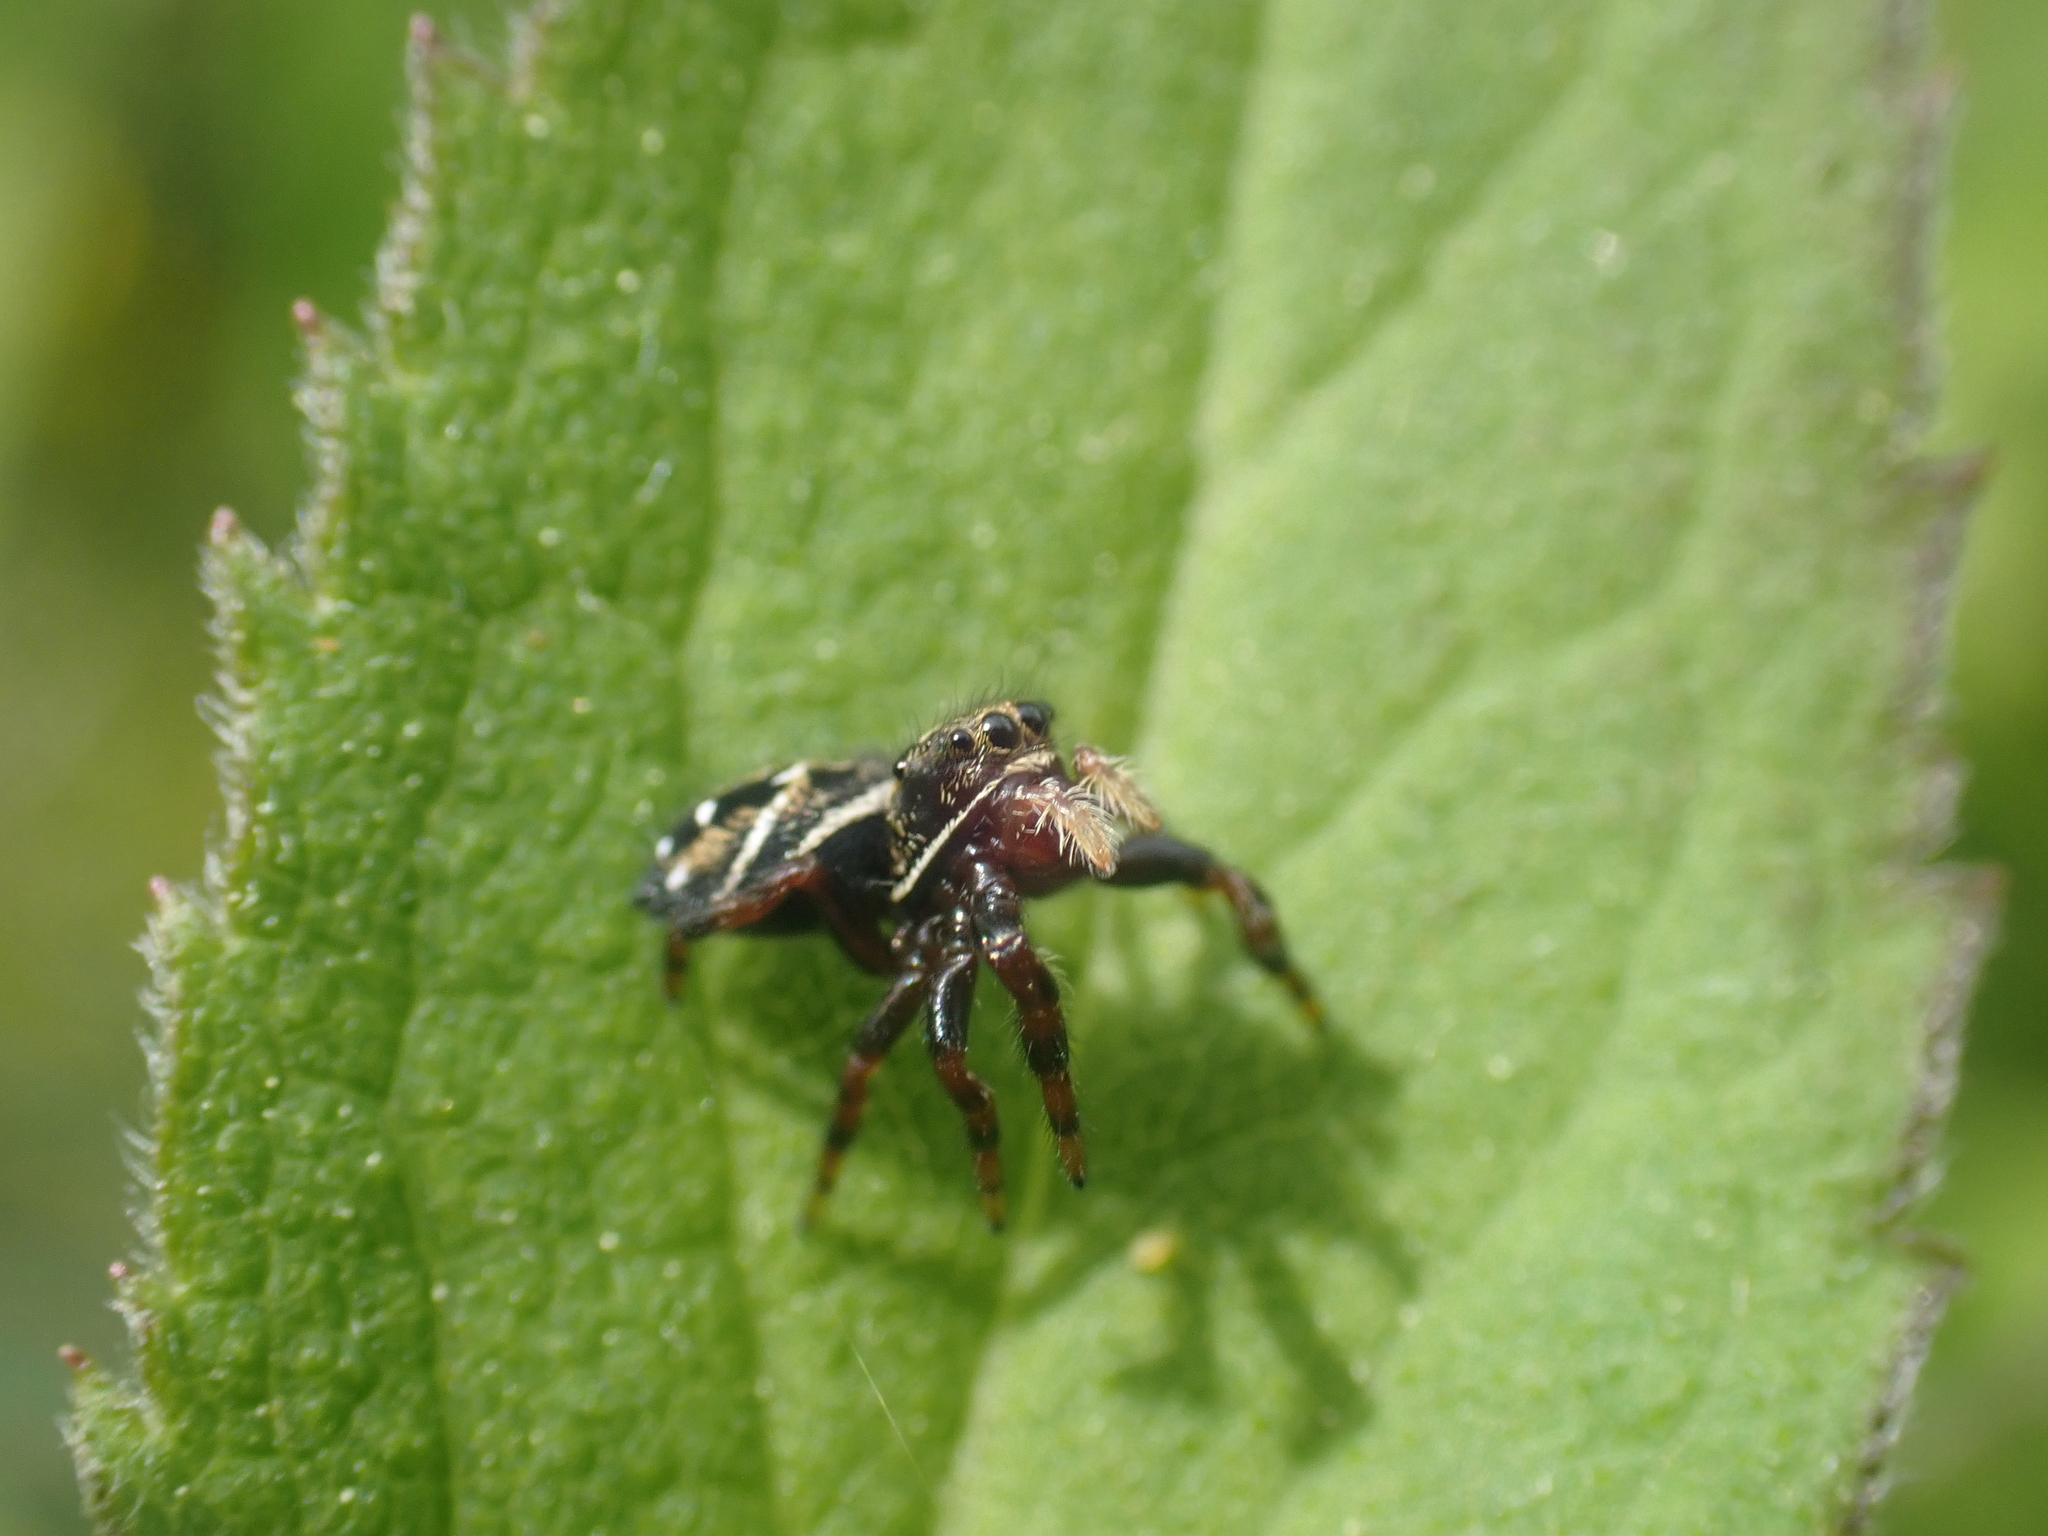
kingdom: Animalia
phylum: Arthropoda
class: Arachnida
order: Araneae
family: Salticidae
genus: Phidippus
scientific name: Phidippus clarus
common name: Brilliant jumping spider
